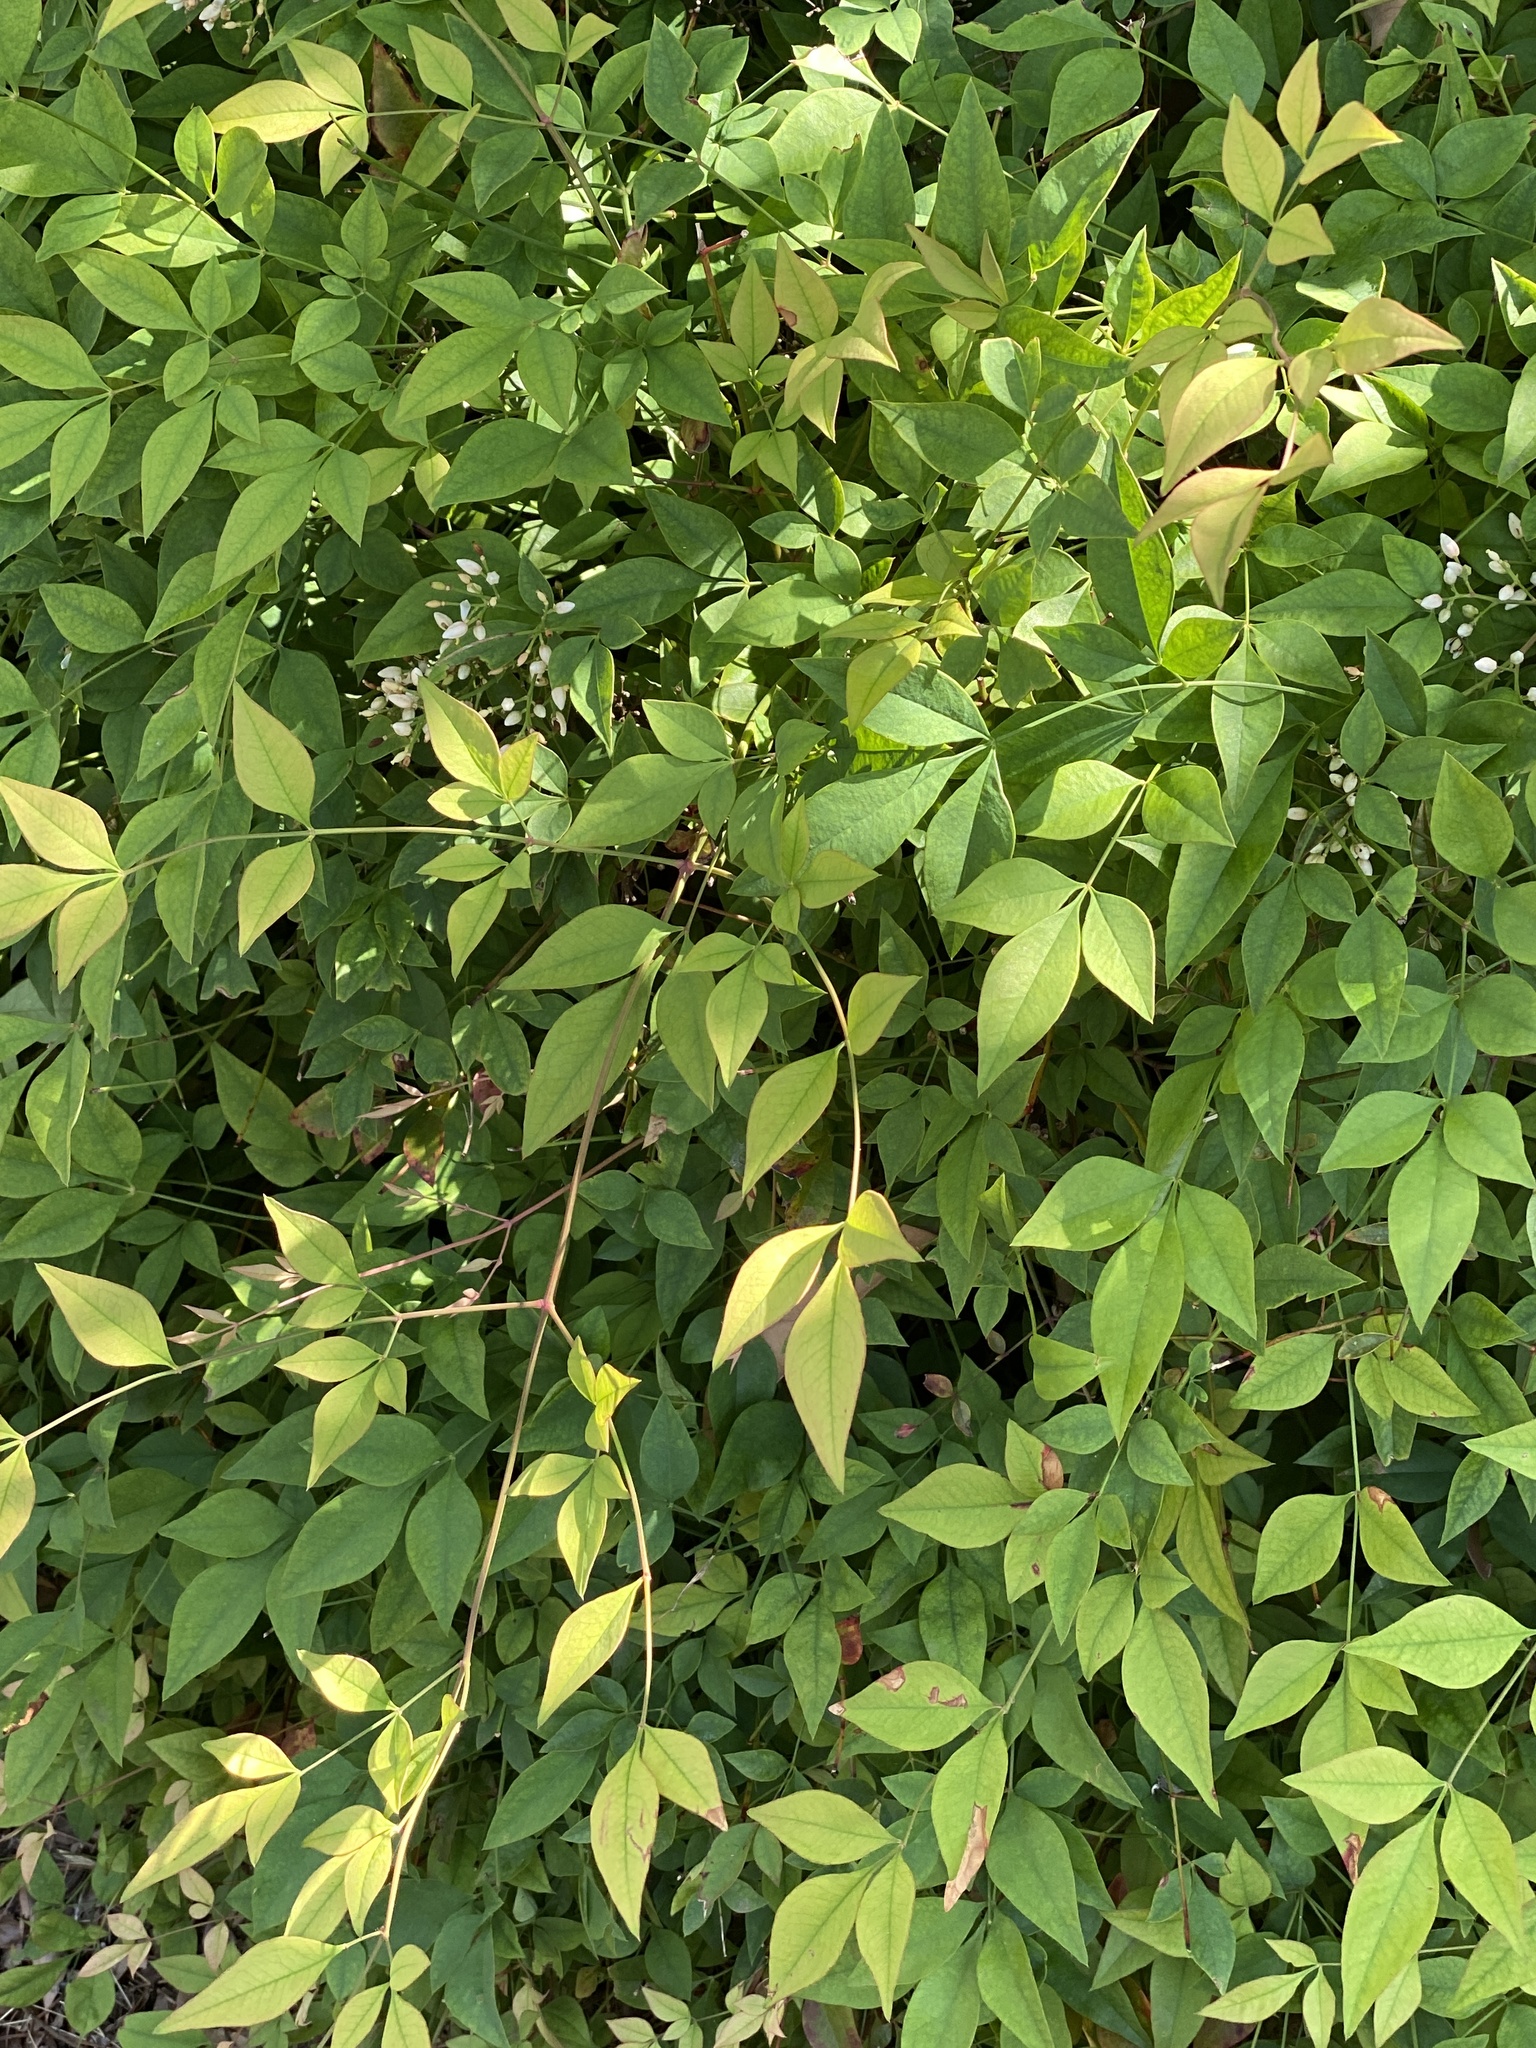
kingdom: Plantae
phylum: Tracheophyta
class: Magnoliopsida
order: Ranunculales
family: Berberidaceae
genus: Nandina
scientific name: Nandina domestica
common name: Sacred bamboo
